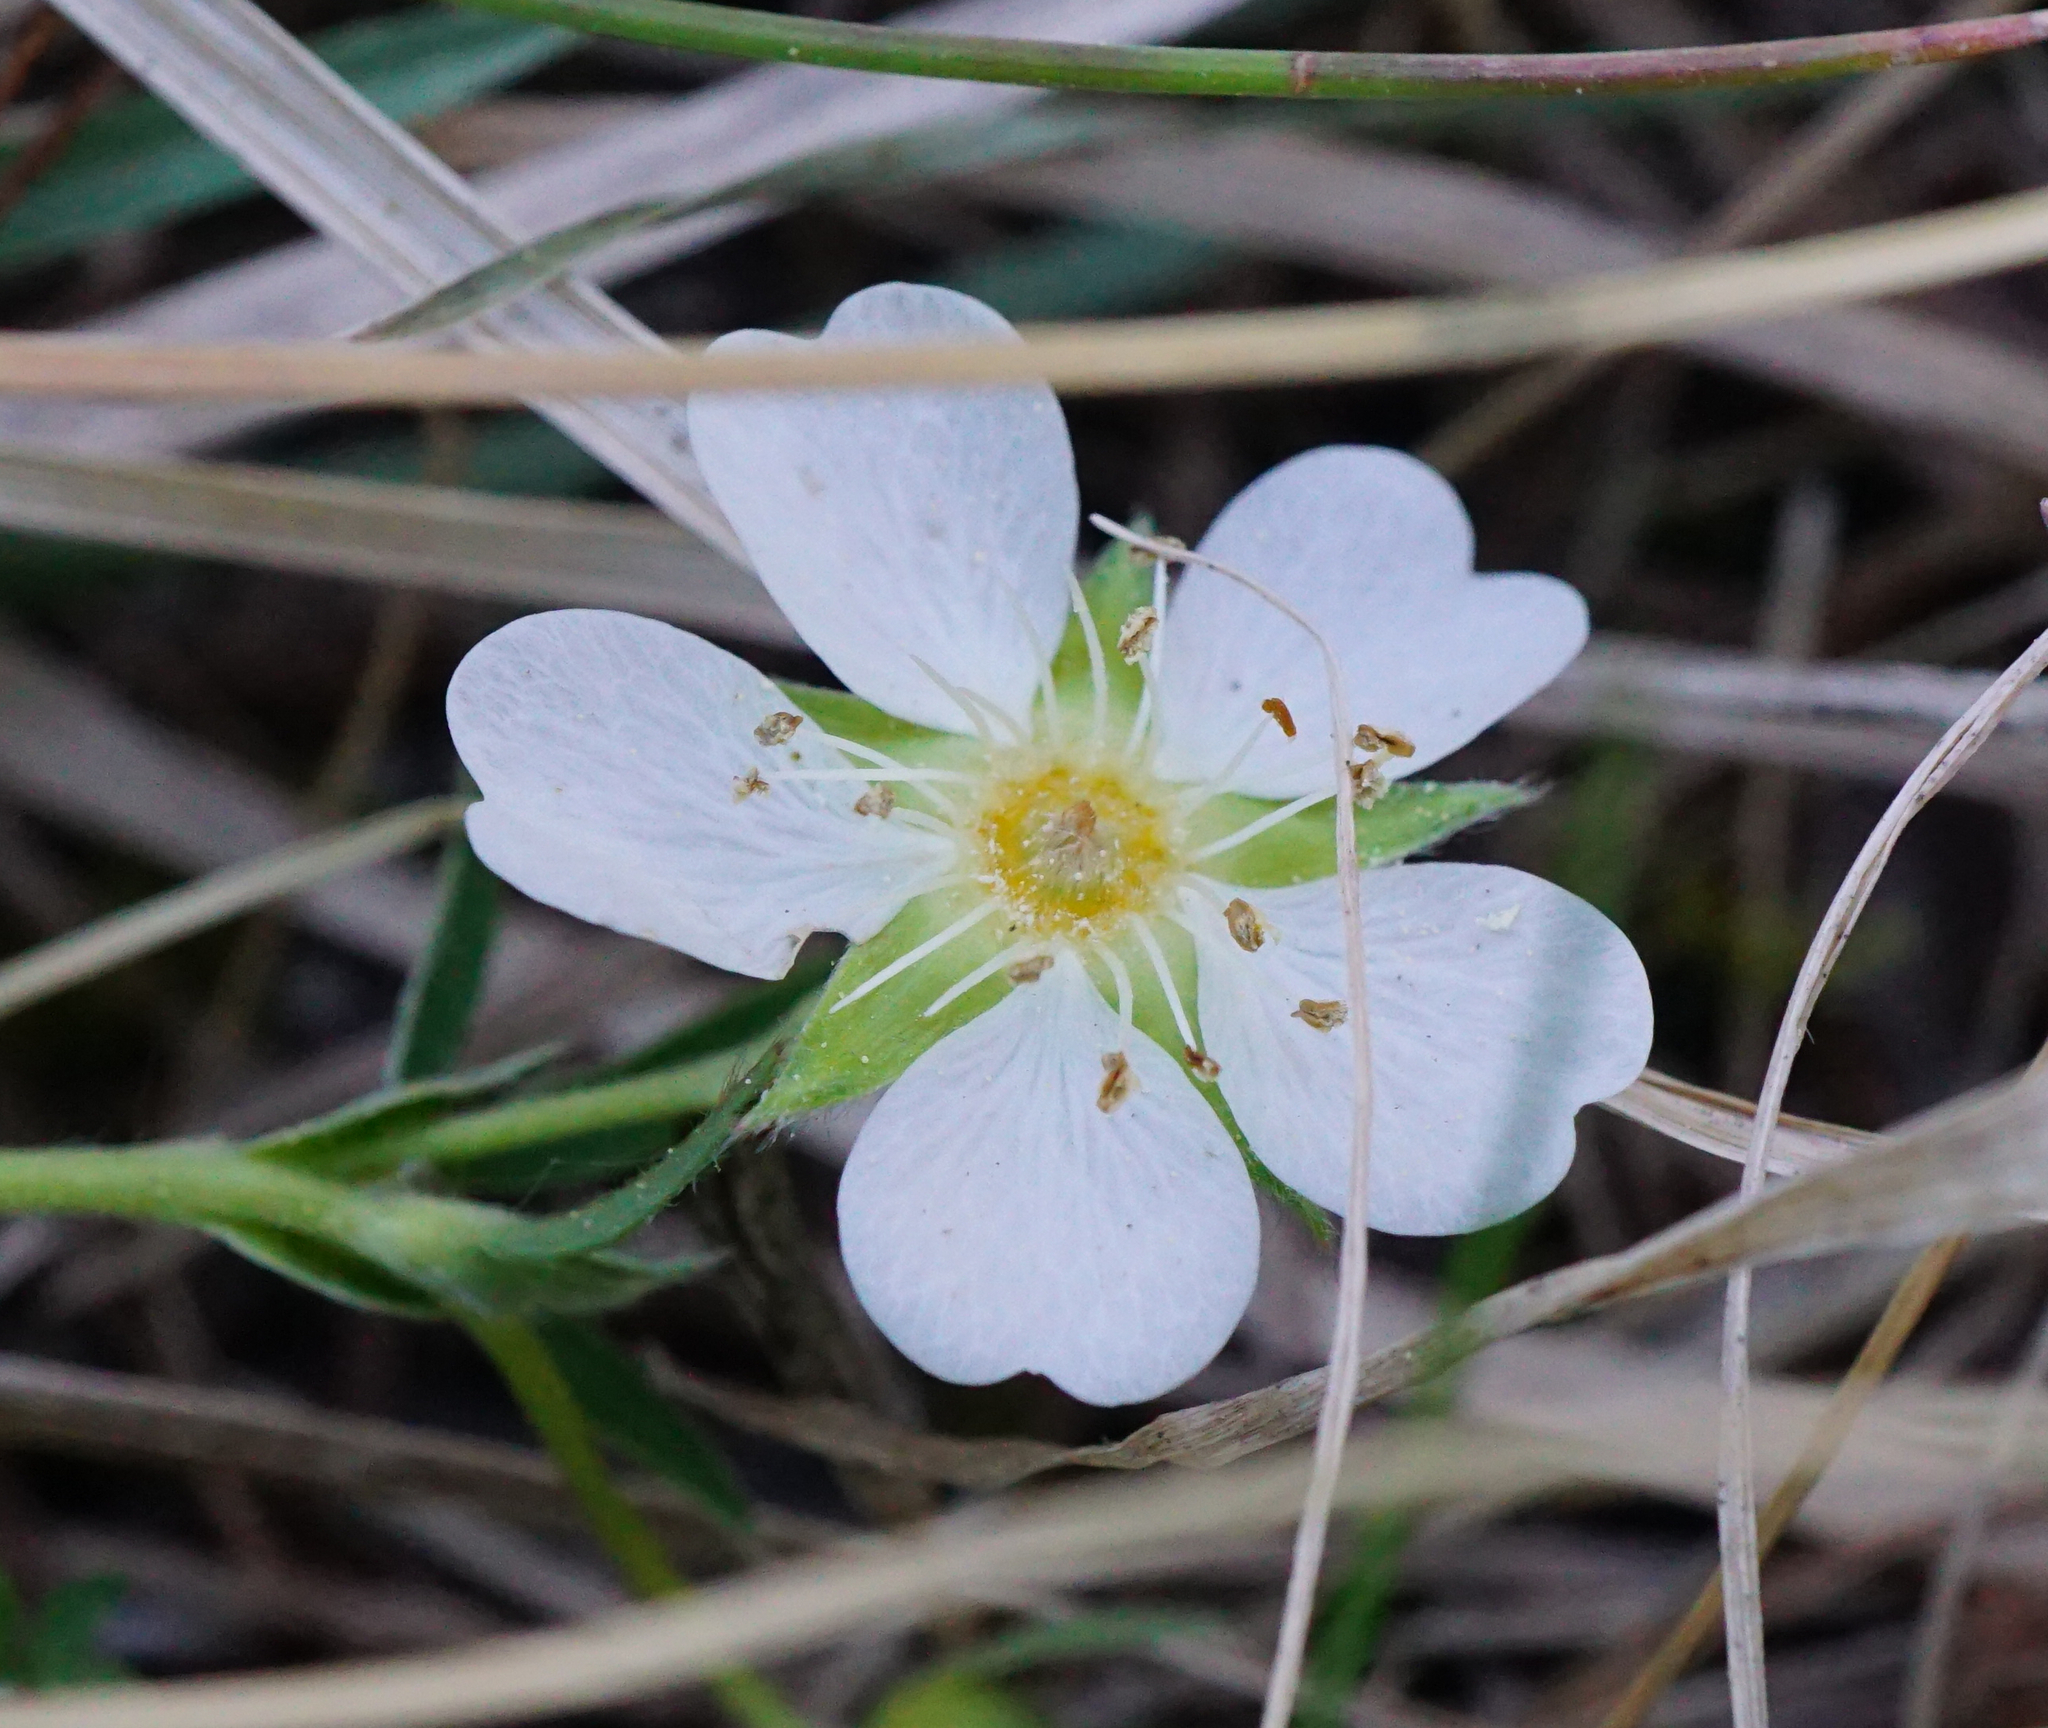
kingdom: Plantae
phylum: Tracheophyta
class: Magnoliopsida
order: Rosales
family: Rosaceae
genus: Potentilla
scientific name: Potentilla alba
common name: White cinquefoil
